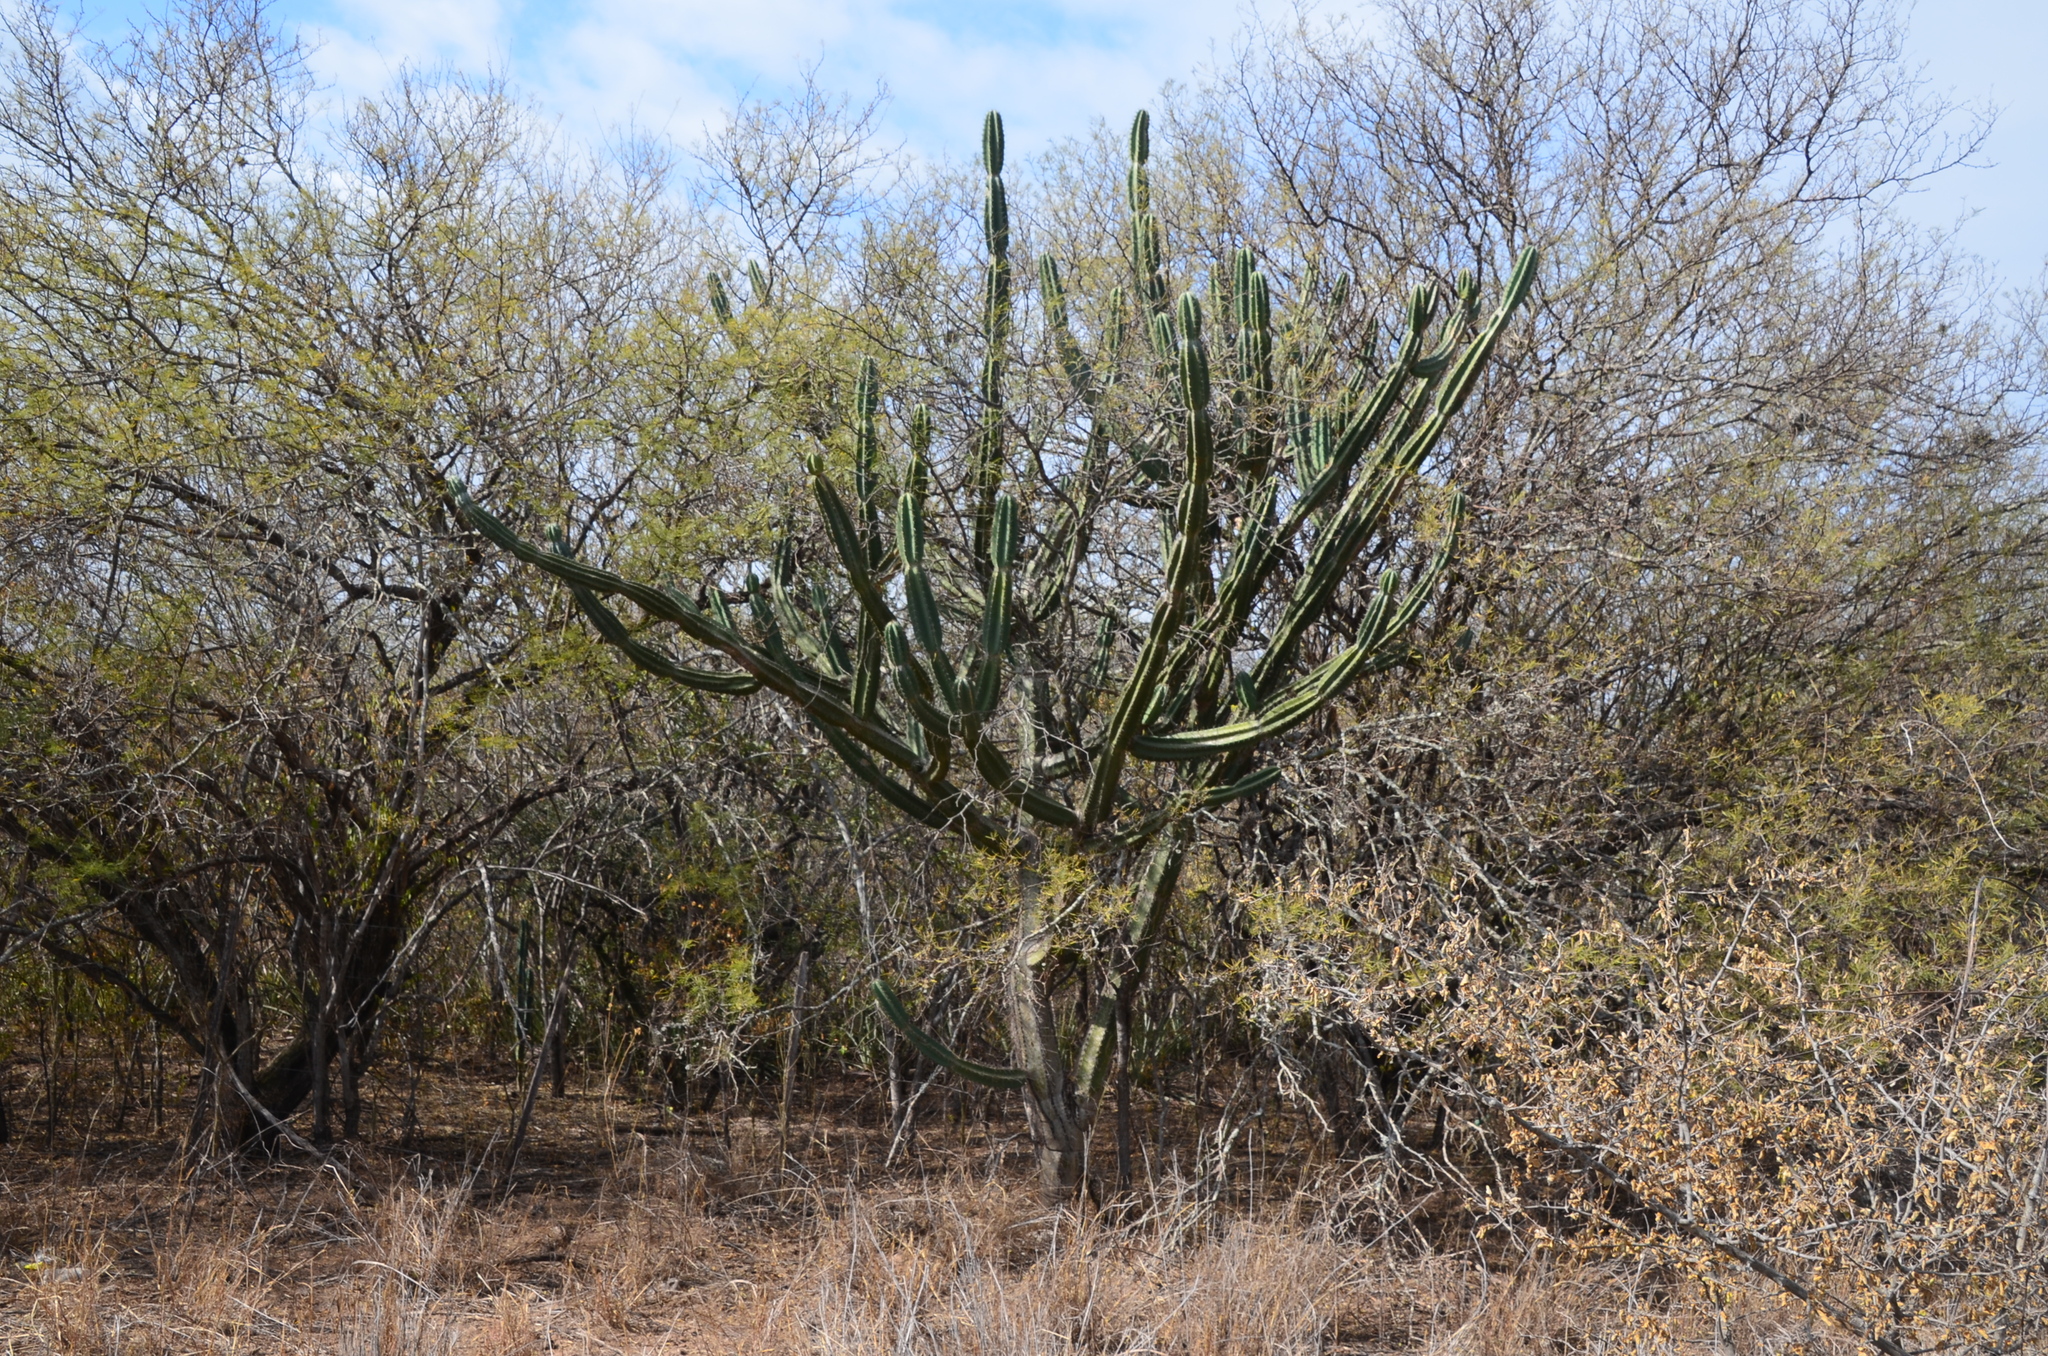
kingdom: Plantae
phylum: Tracheophyta
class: Magnoliopsida
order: Caryophyllales
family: Cactaceae
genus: Cereus
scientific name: Cereus forbesii
